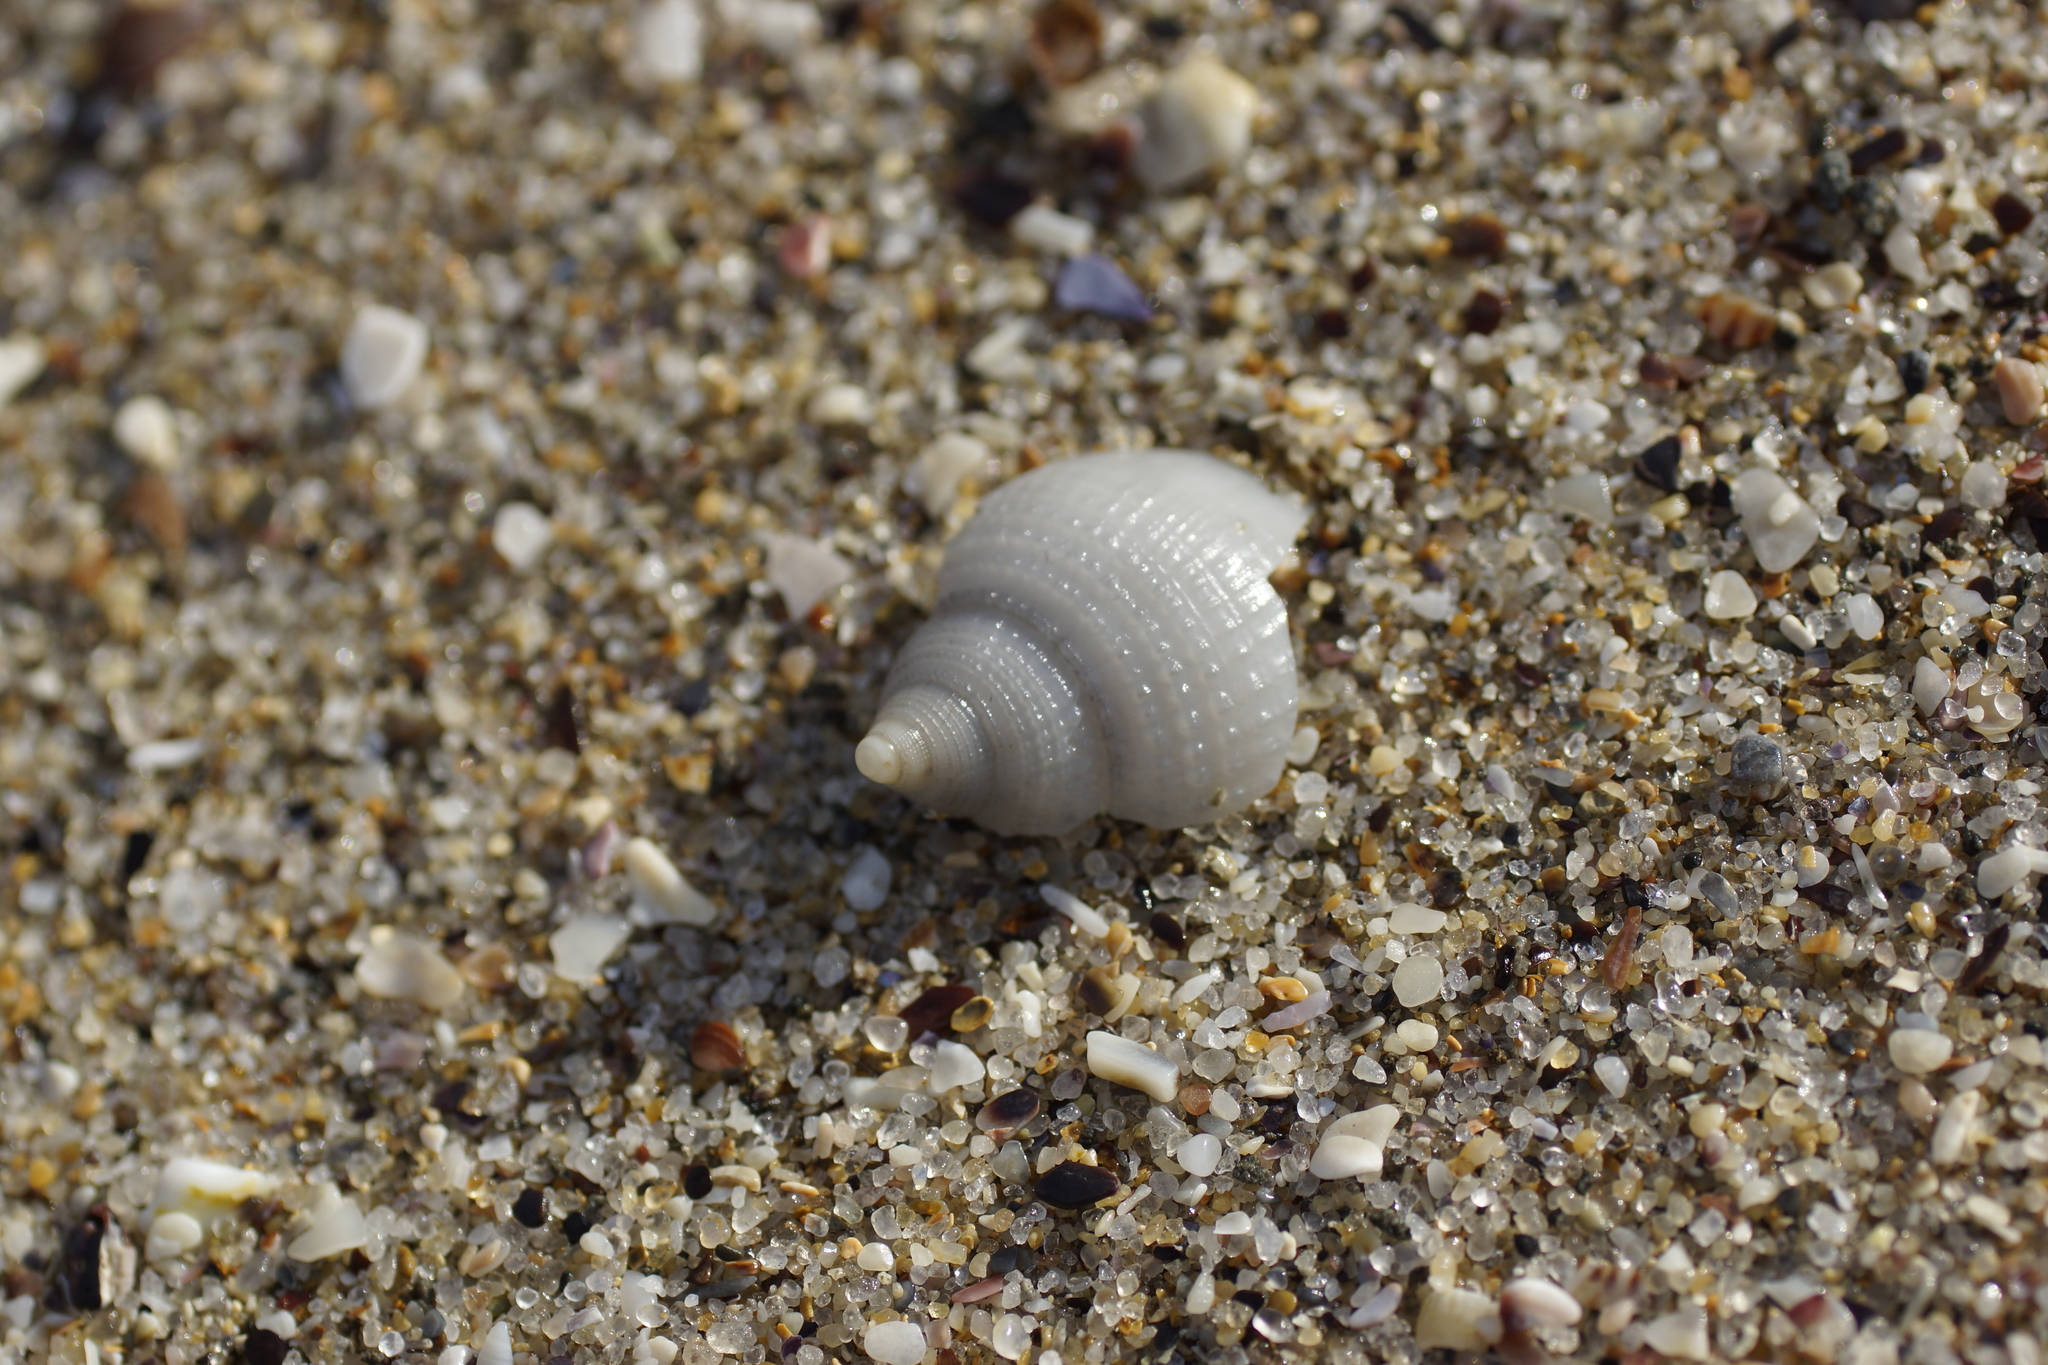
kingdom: Animalia
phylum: Mollusca
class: Gastropoda
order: Littorinimorpha
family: Cassidae
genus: Antephalium
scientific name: Antephalium
